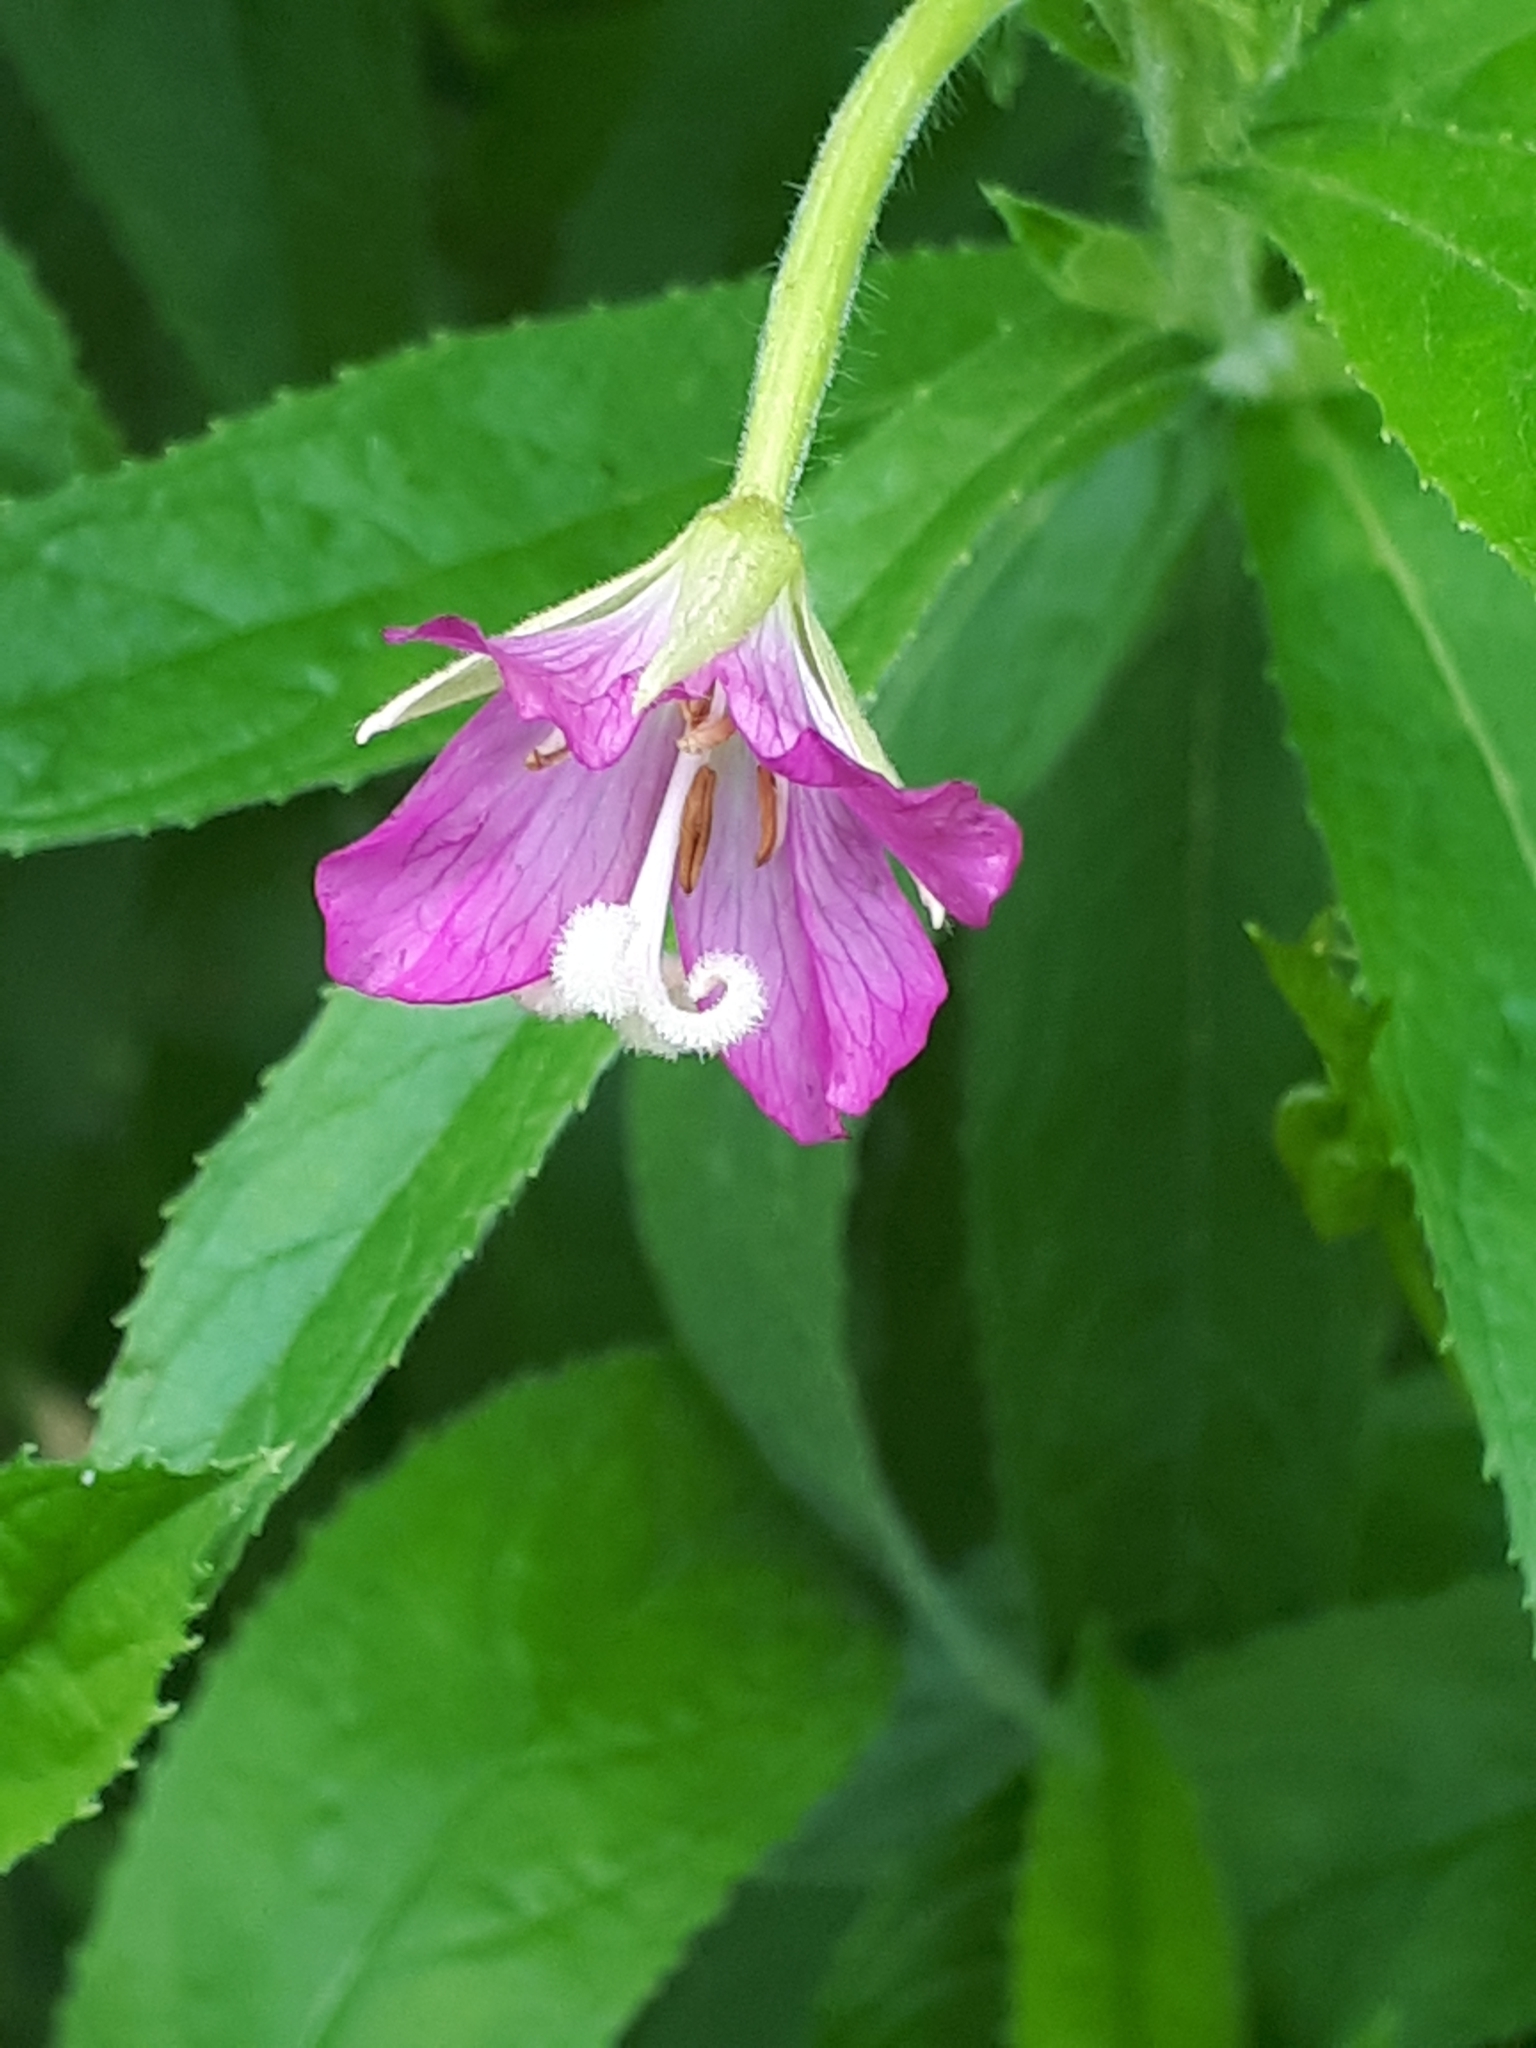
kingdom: Plantae
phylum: Tracheophyta
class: Magnoliopsida
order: Myrtales
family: Onagraceae
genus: Epilobium
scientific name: Epilobium hirsutum
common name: Great willowherb
